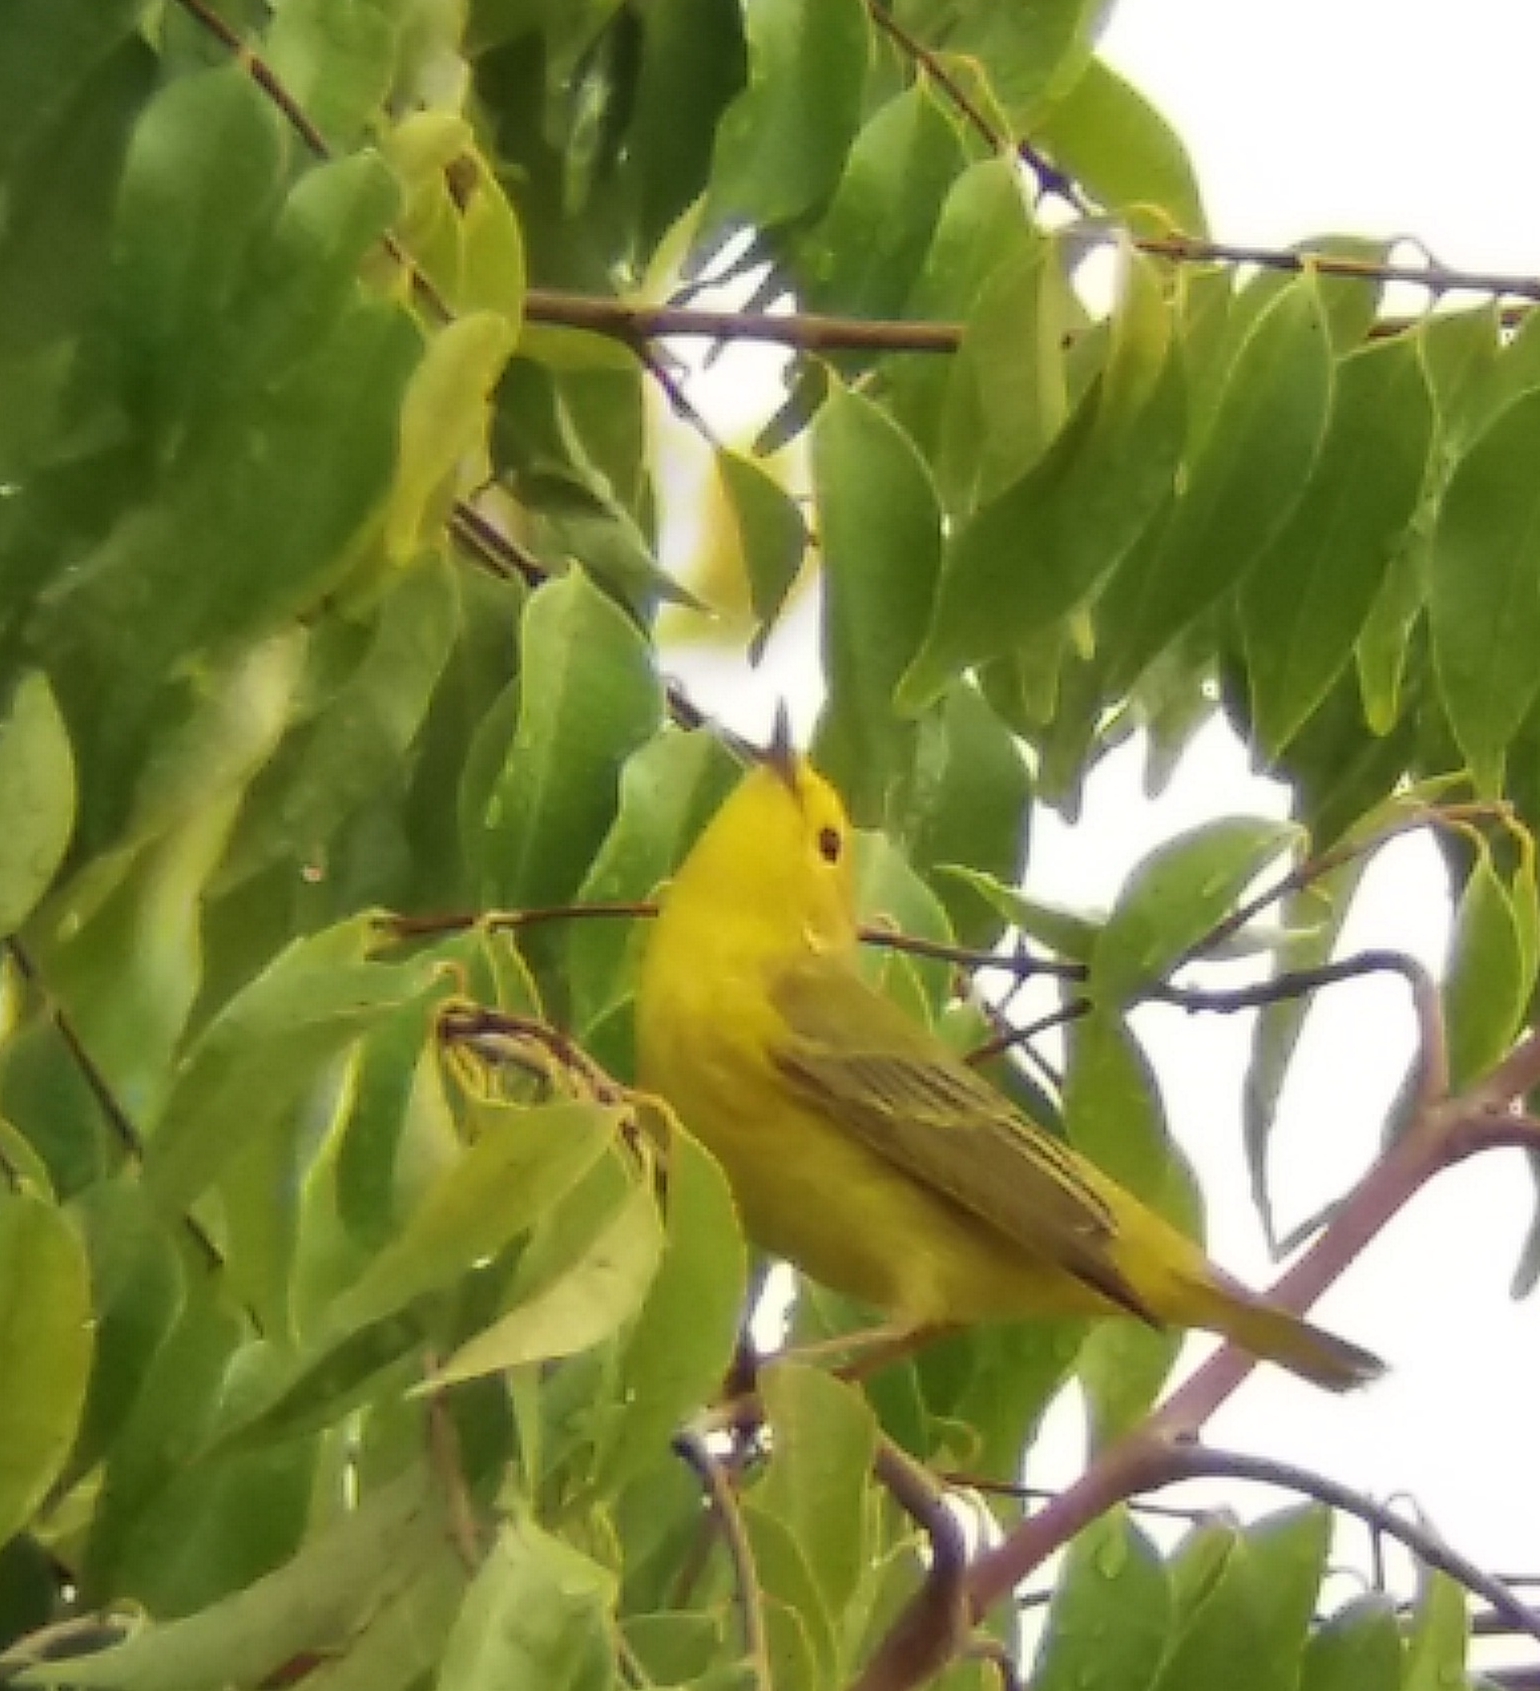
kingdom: Animalia
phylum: Chordata
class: Aves
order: Passeriformes
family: Parulidae
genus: Setophaga
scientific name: Setophaga petechia
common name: Yellow warbler
